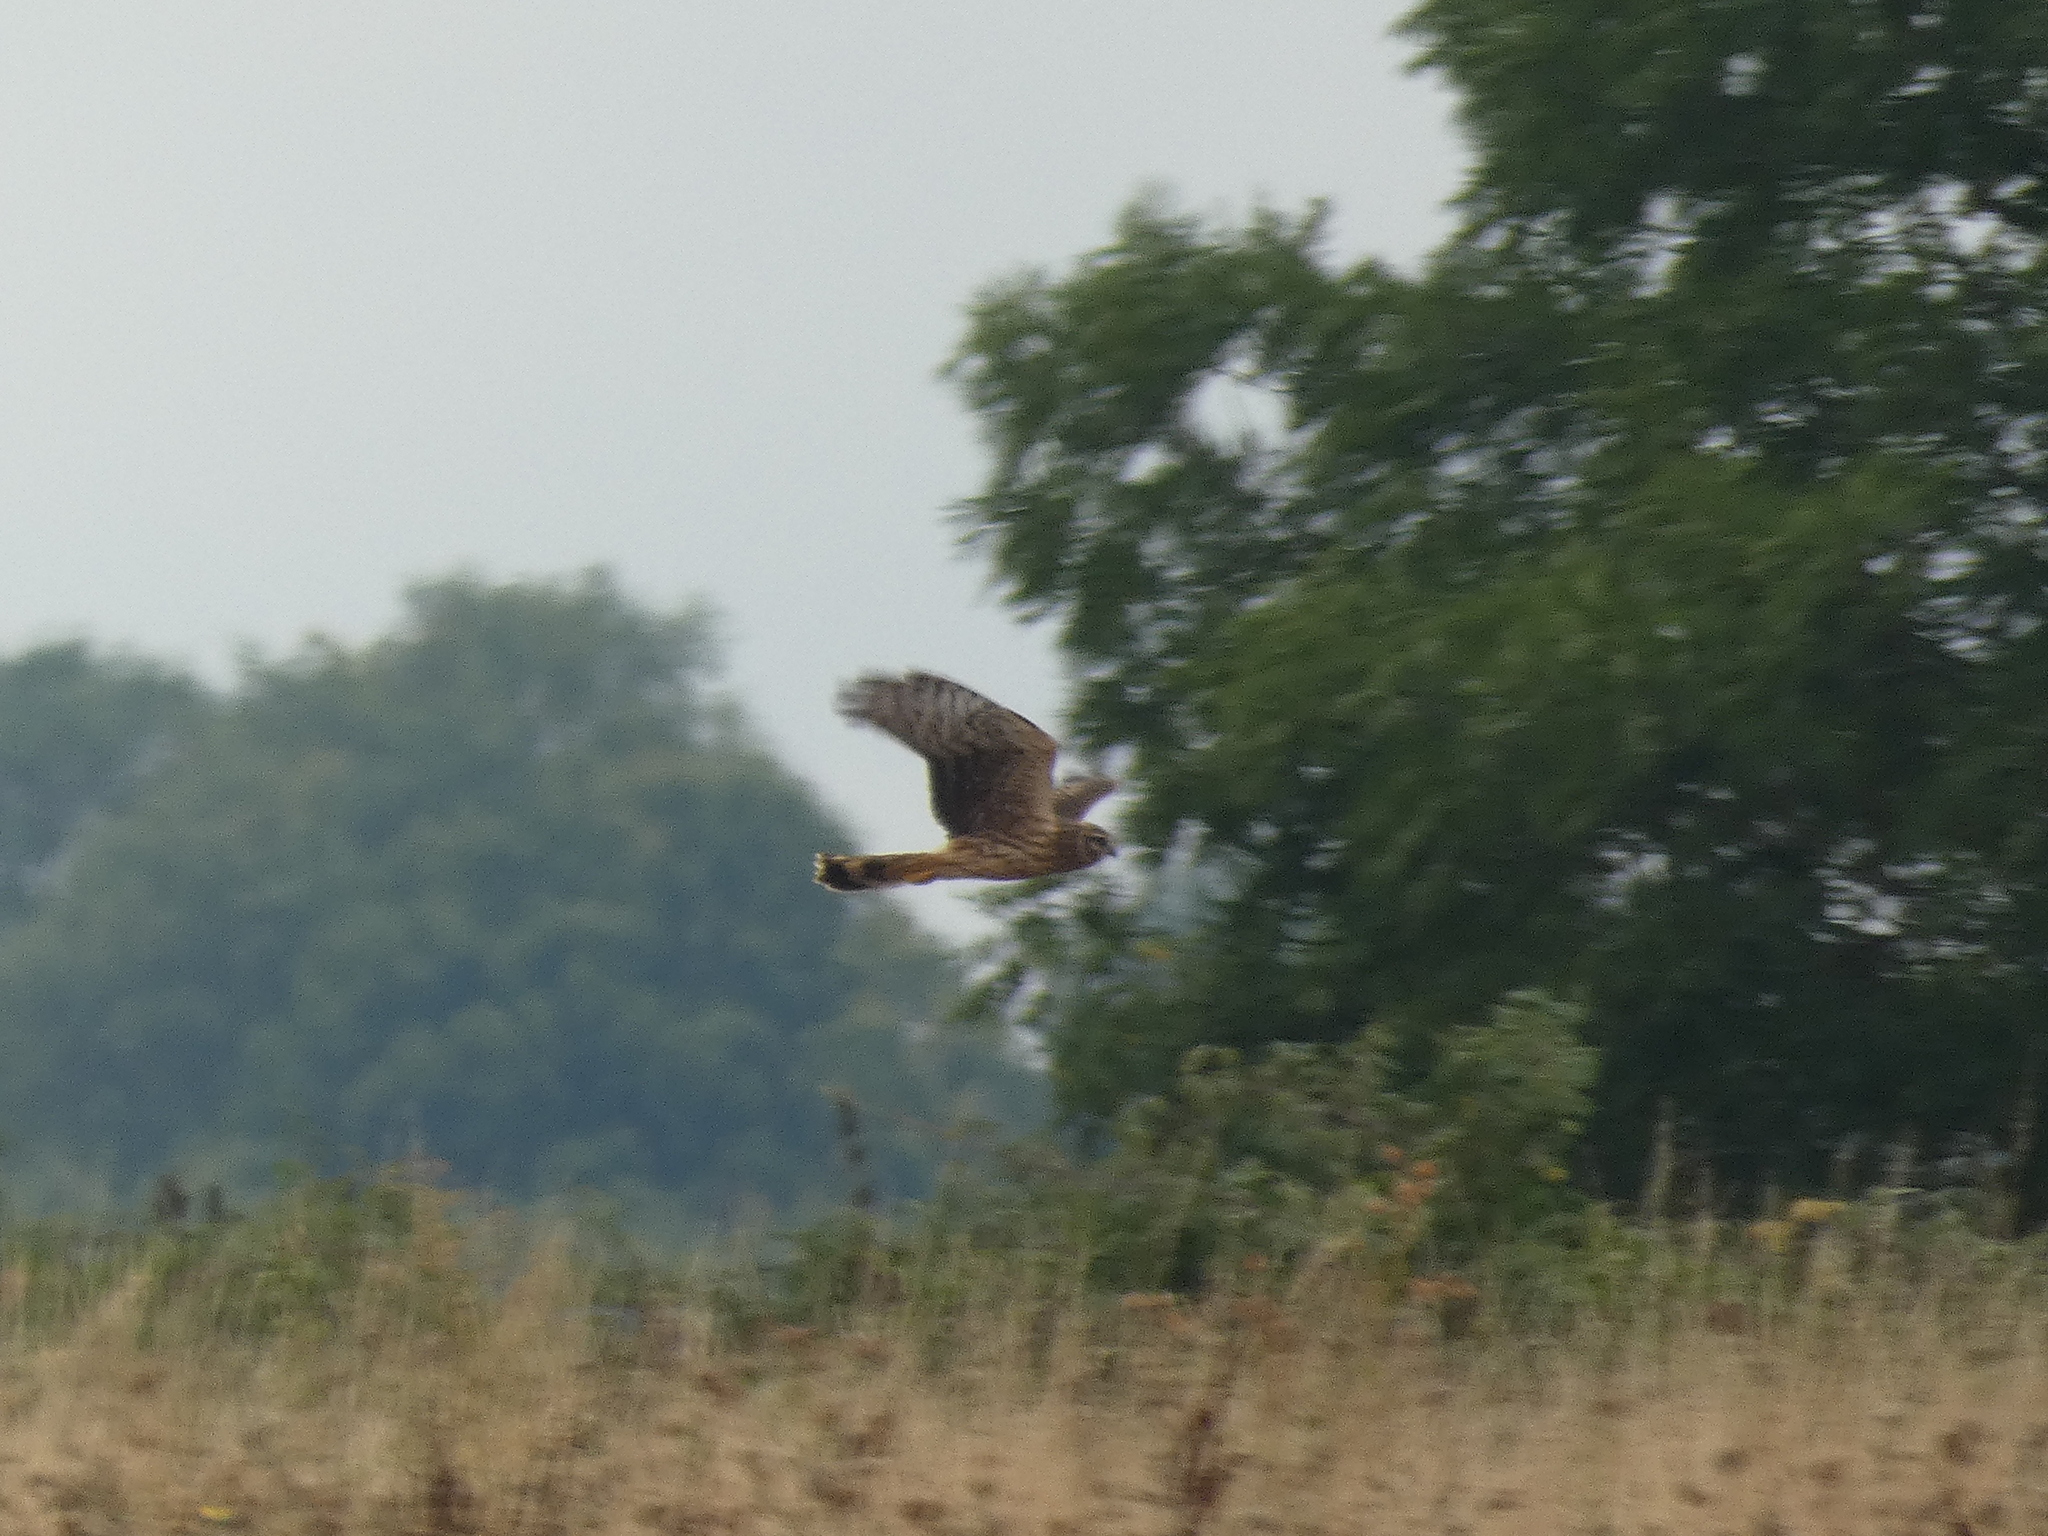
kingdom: Animalia
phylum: Chordata
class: Aves
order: Accipitriformes
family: Accipitridae
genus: Circus
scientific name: Circus cyaneus
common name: Hen harrier
